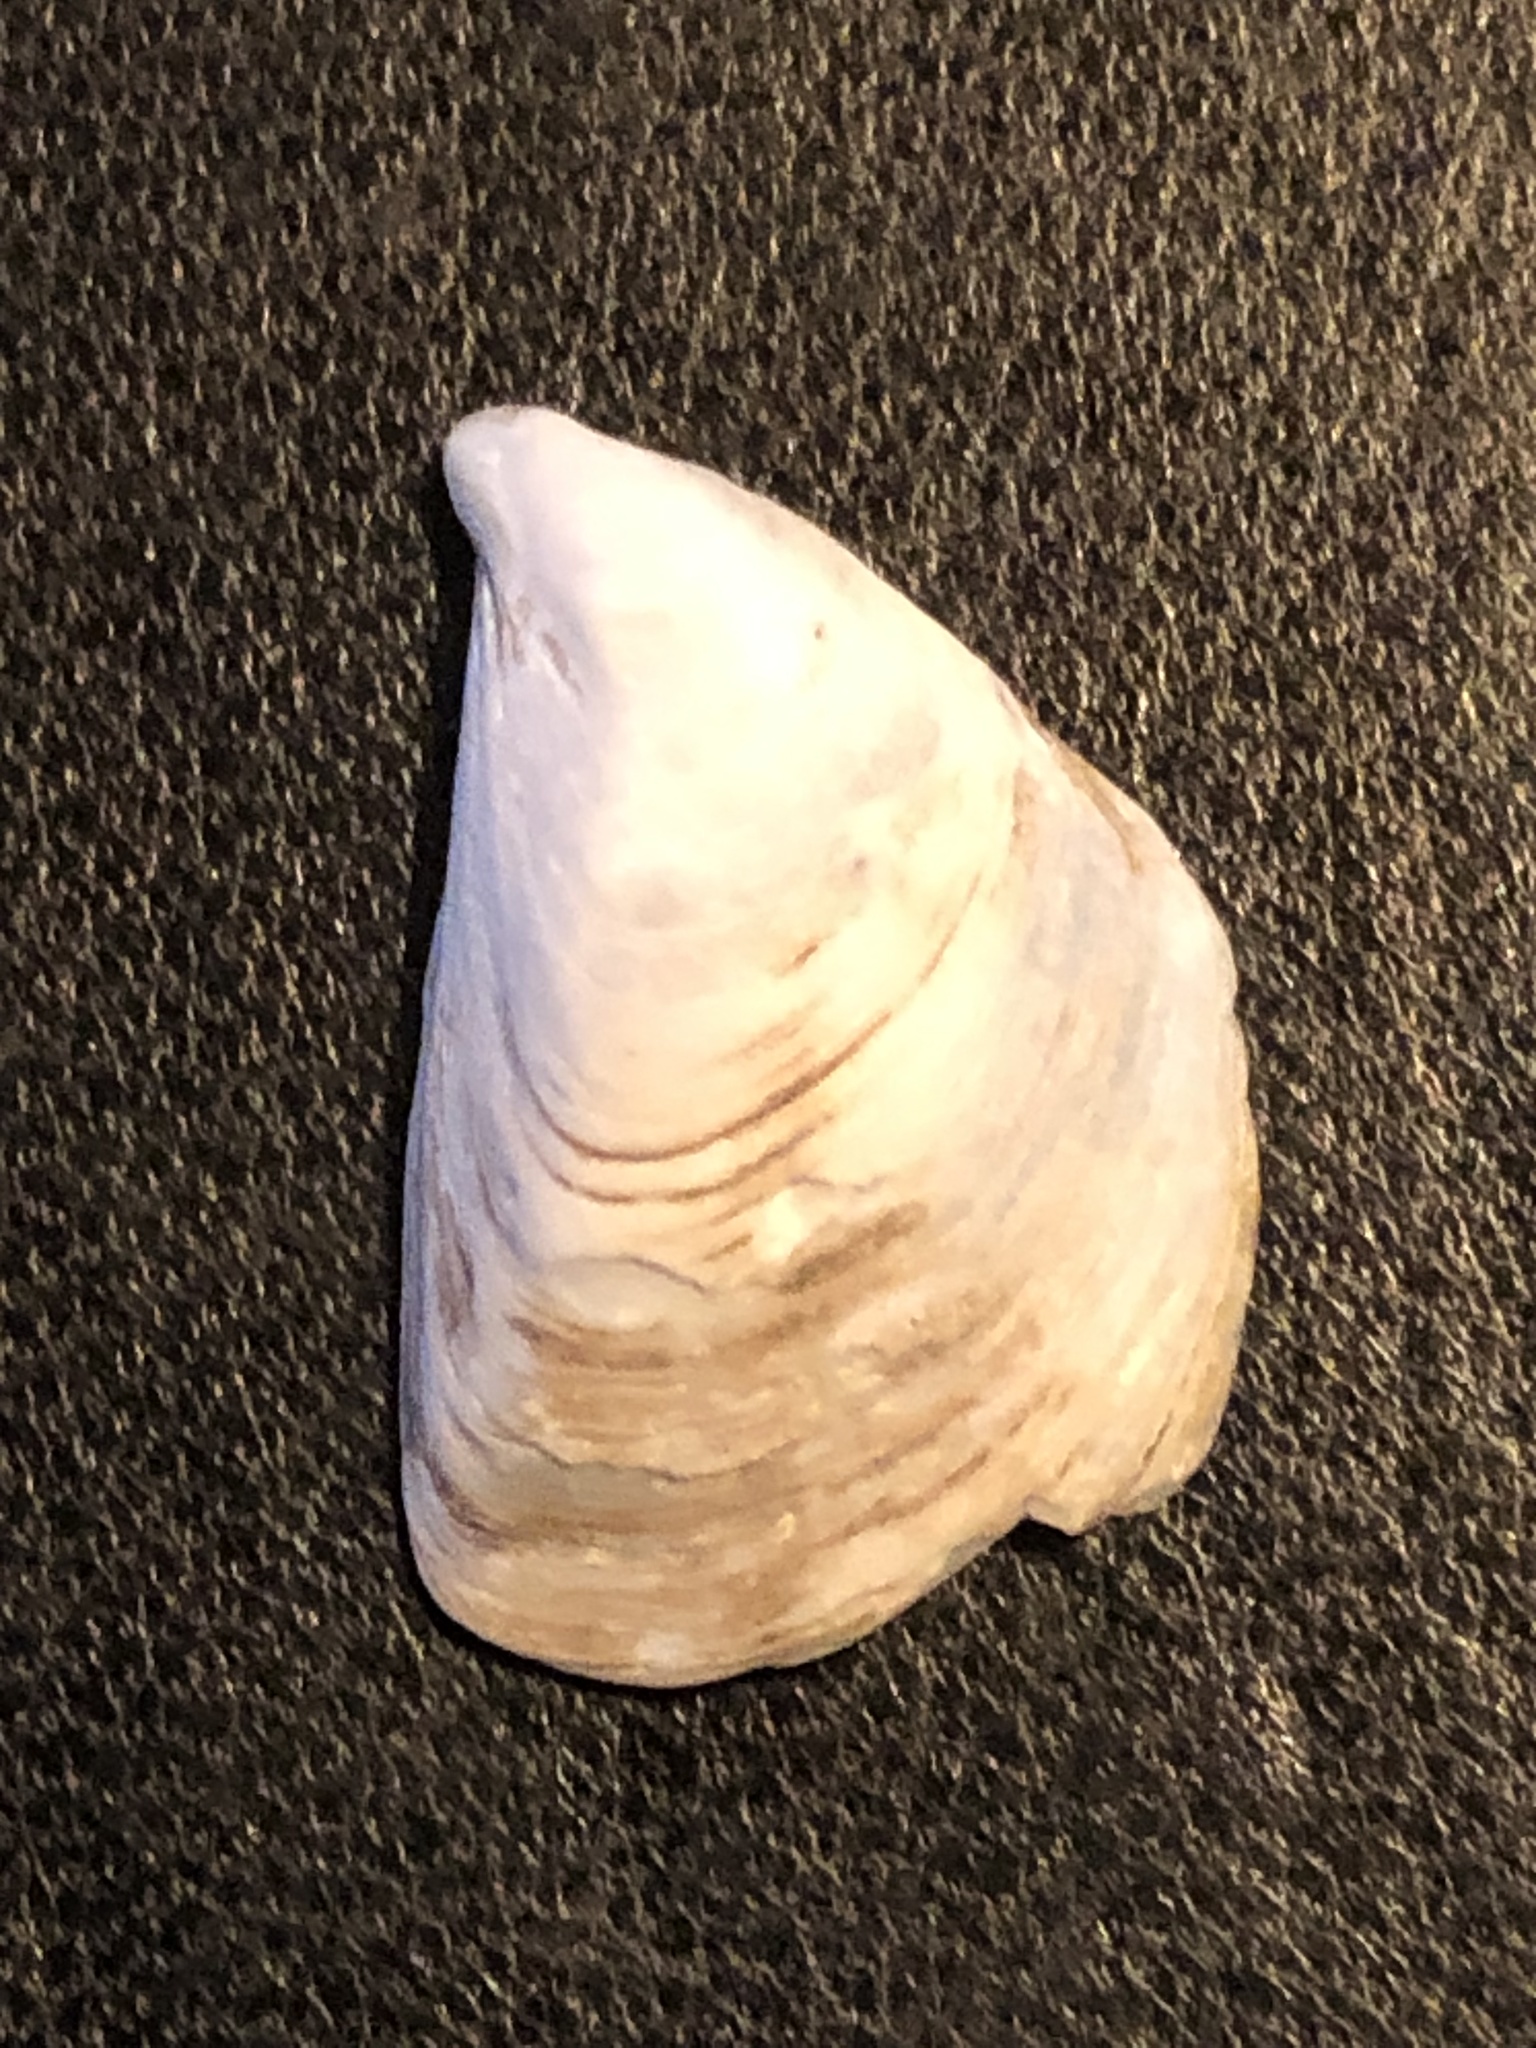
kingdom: Animalia
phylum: Mollusca
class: Bivalvia
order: Myida
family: Dreissenidae
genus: Dreissena
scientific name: Dreissena bugensis
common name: Quagga mussel
